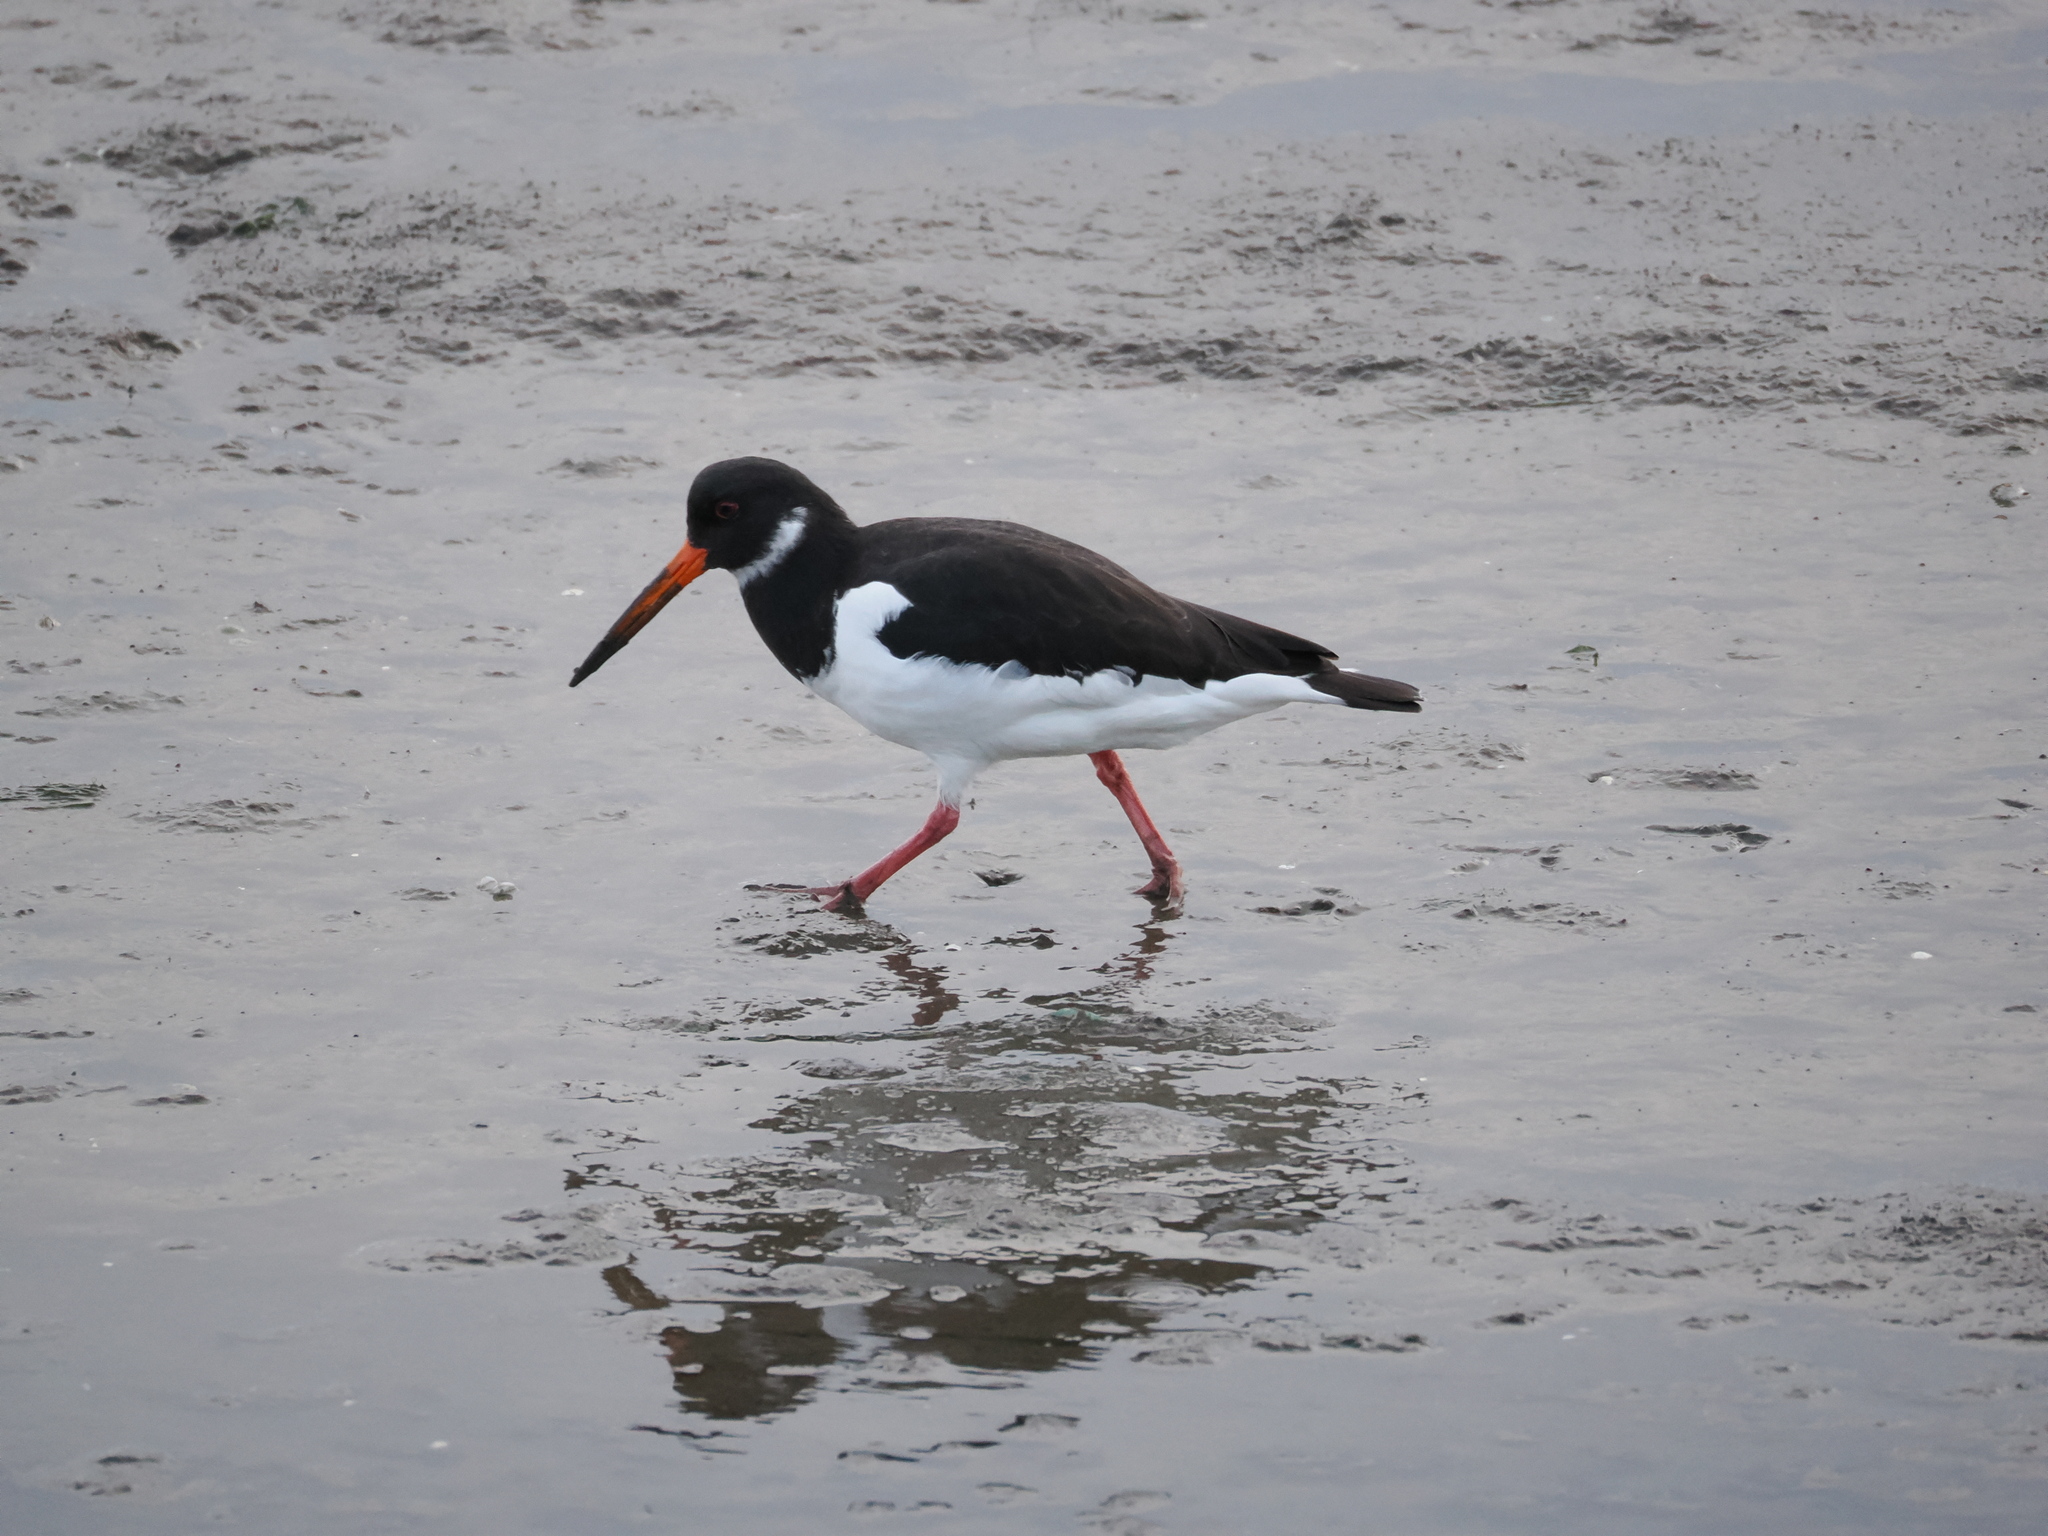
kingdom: Animalia
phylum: Chordata
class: Aves
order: Charadriiformes
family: Haematopodidae
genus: Haematopus
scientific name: Haematopus ostralegus
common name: Eurasian oystercatcher
